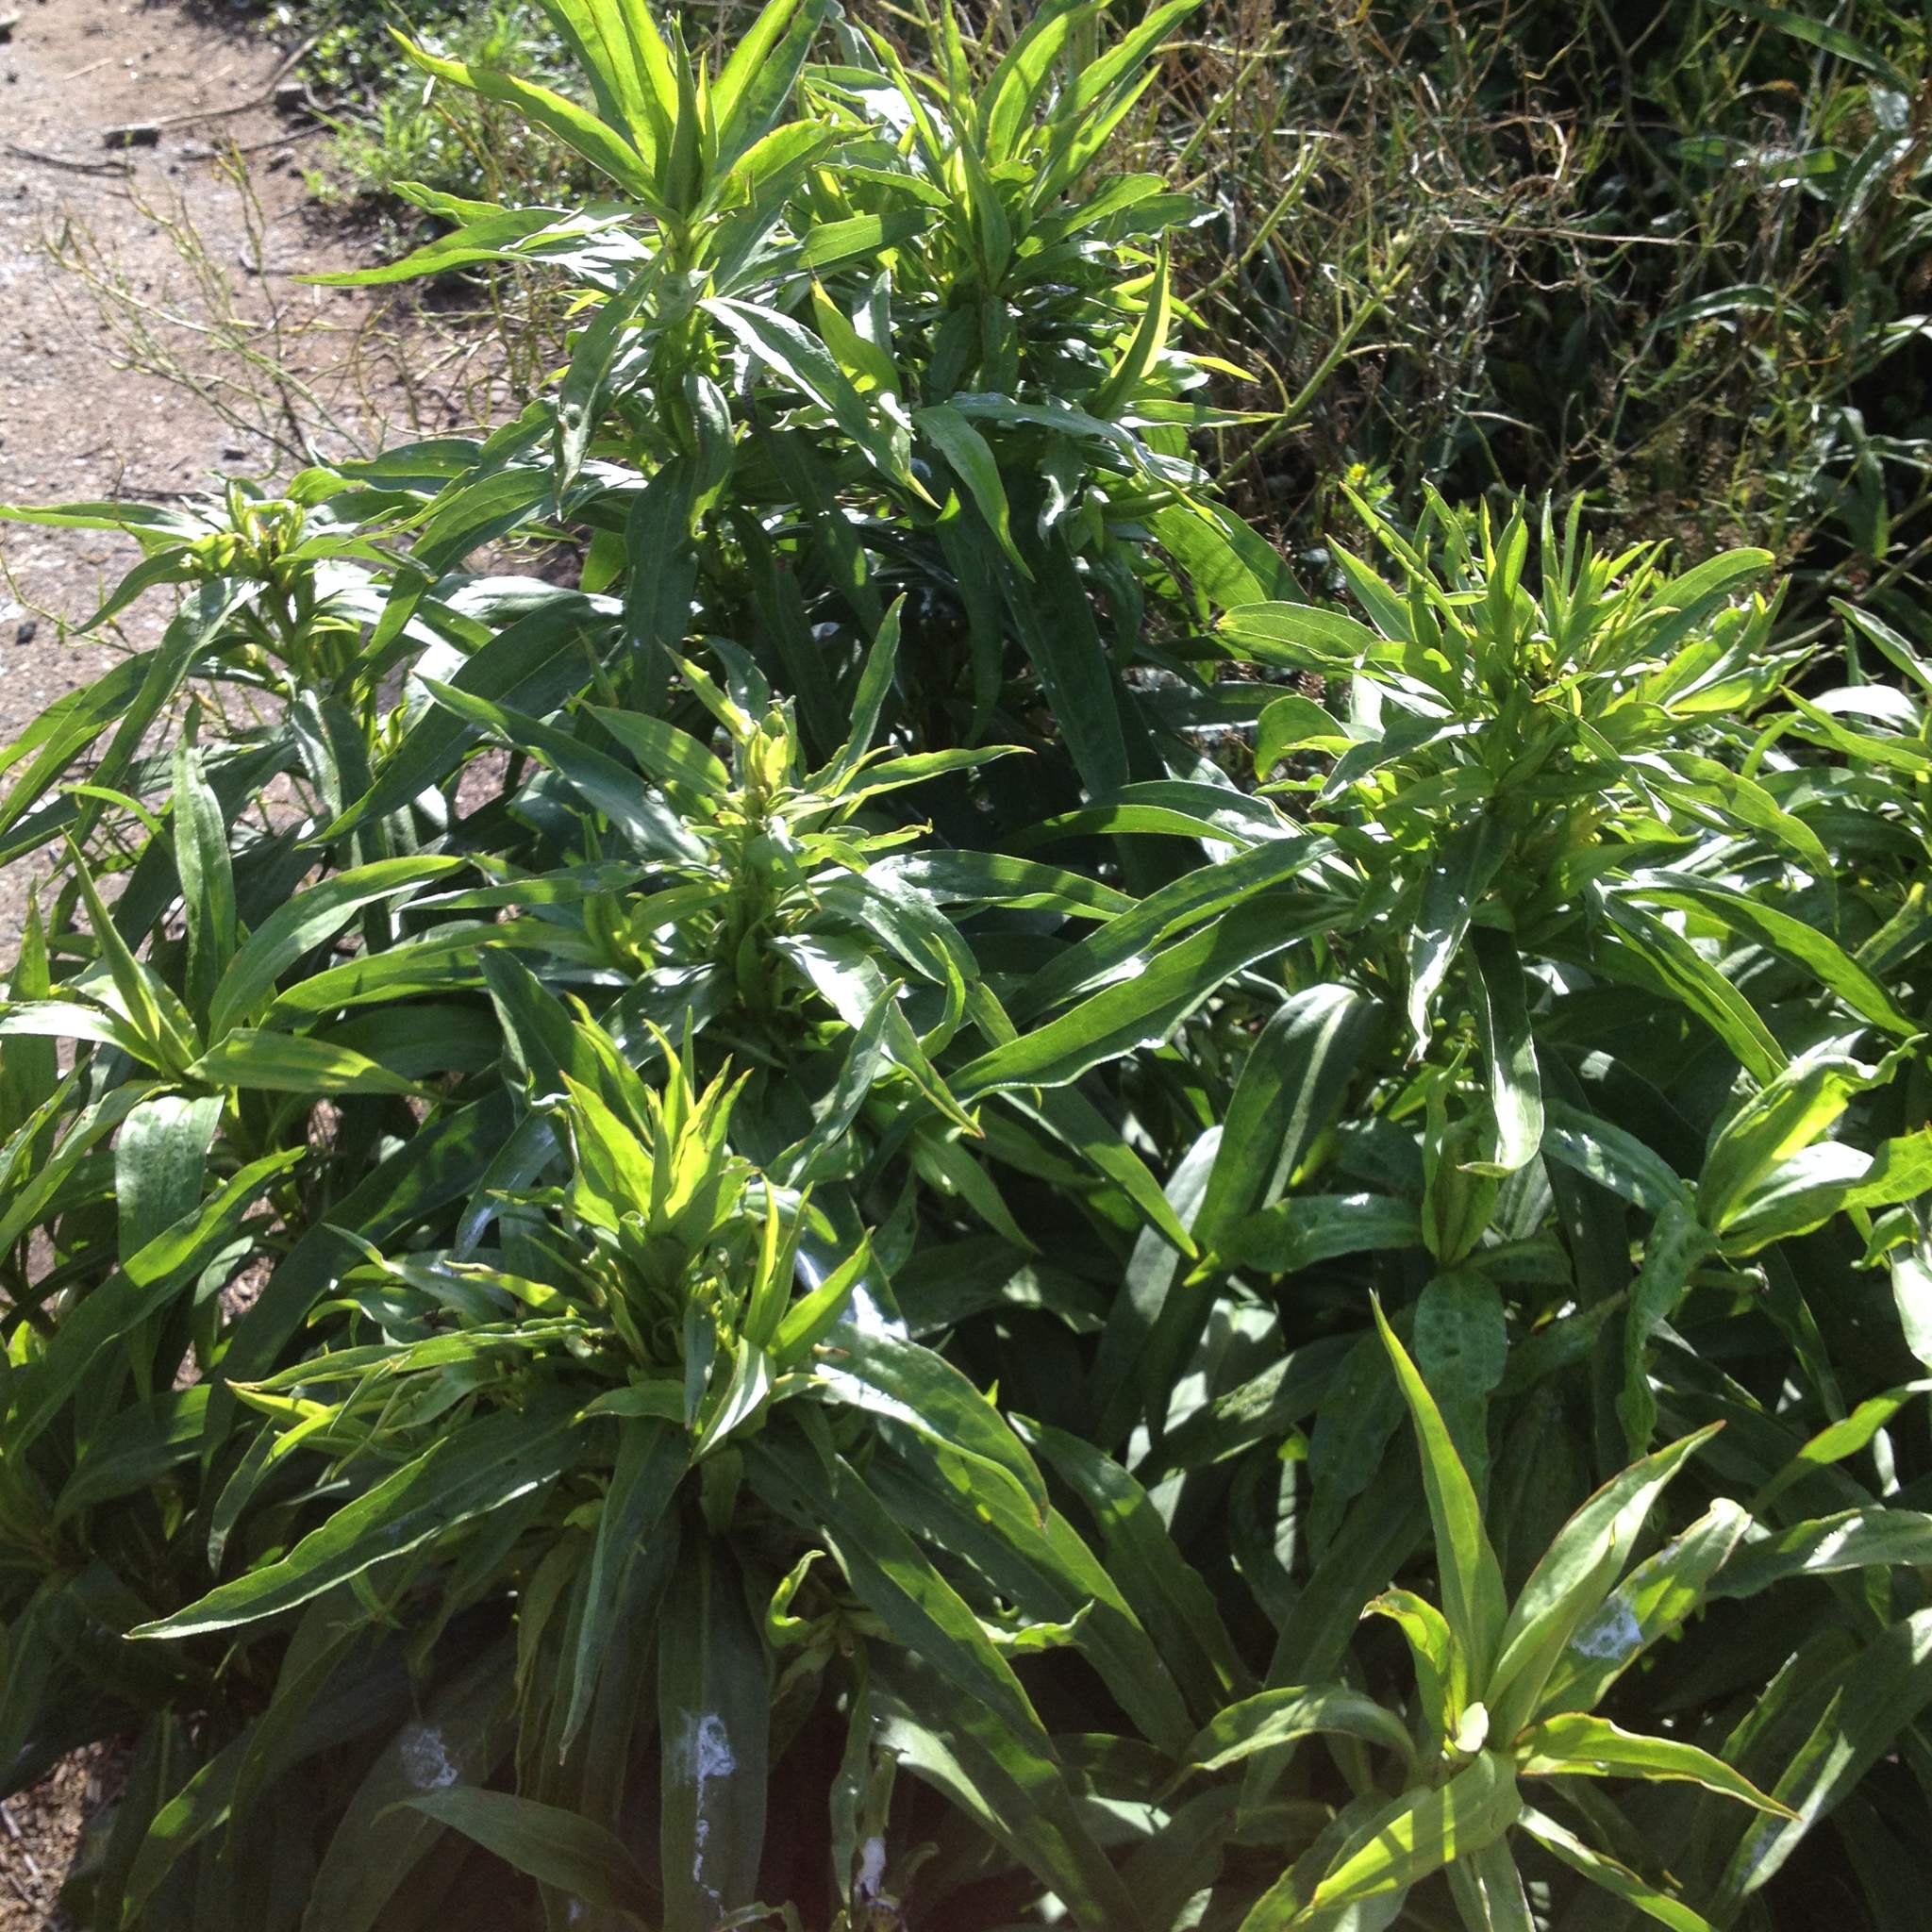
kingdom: Plantae
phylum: Tracheophyta
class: Magnoliopsida
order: Asterales
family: Asteraceae
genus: Solidago
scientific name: Solidago sempervirens
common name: Salt-marsh goldenrod
